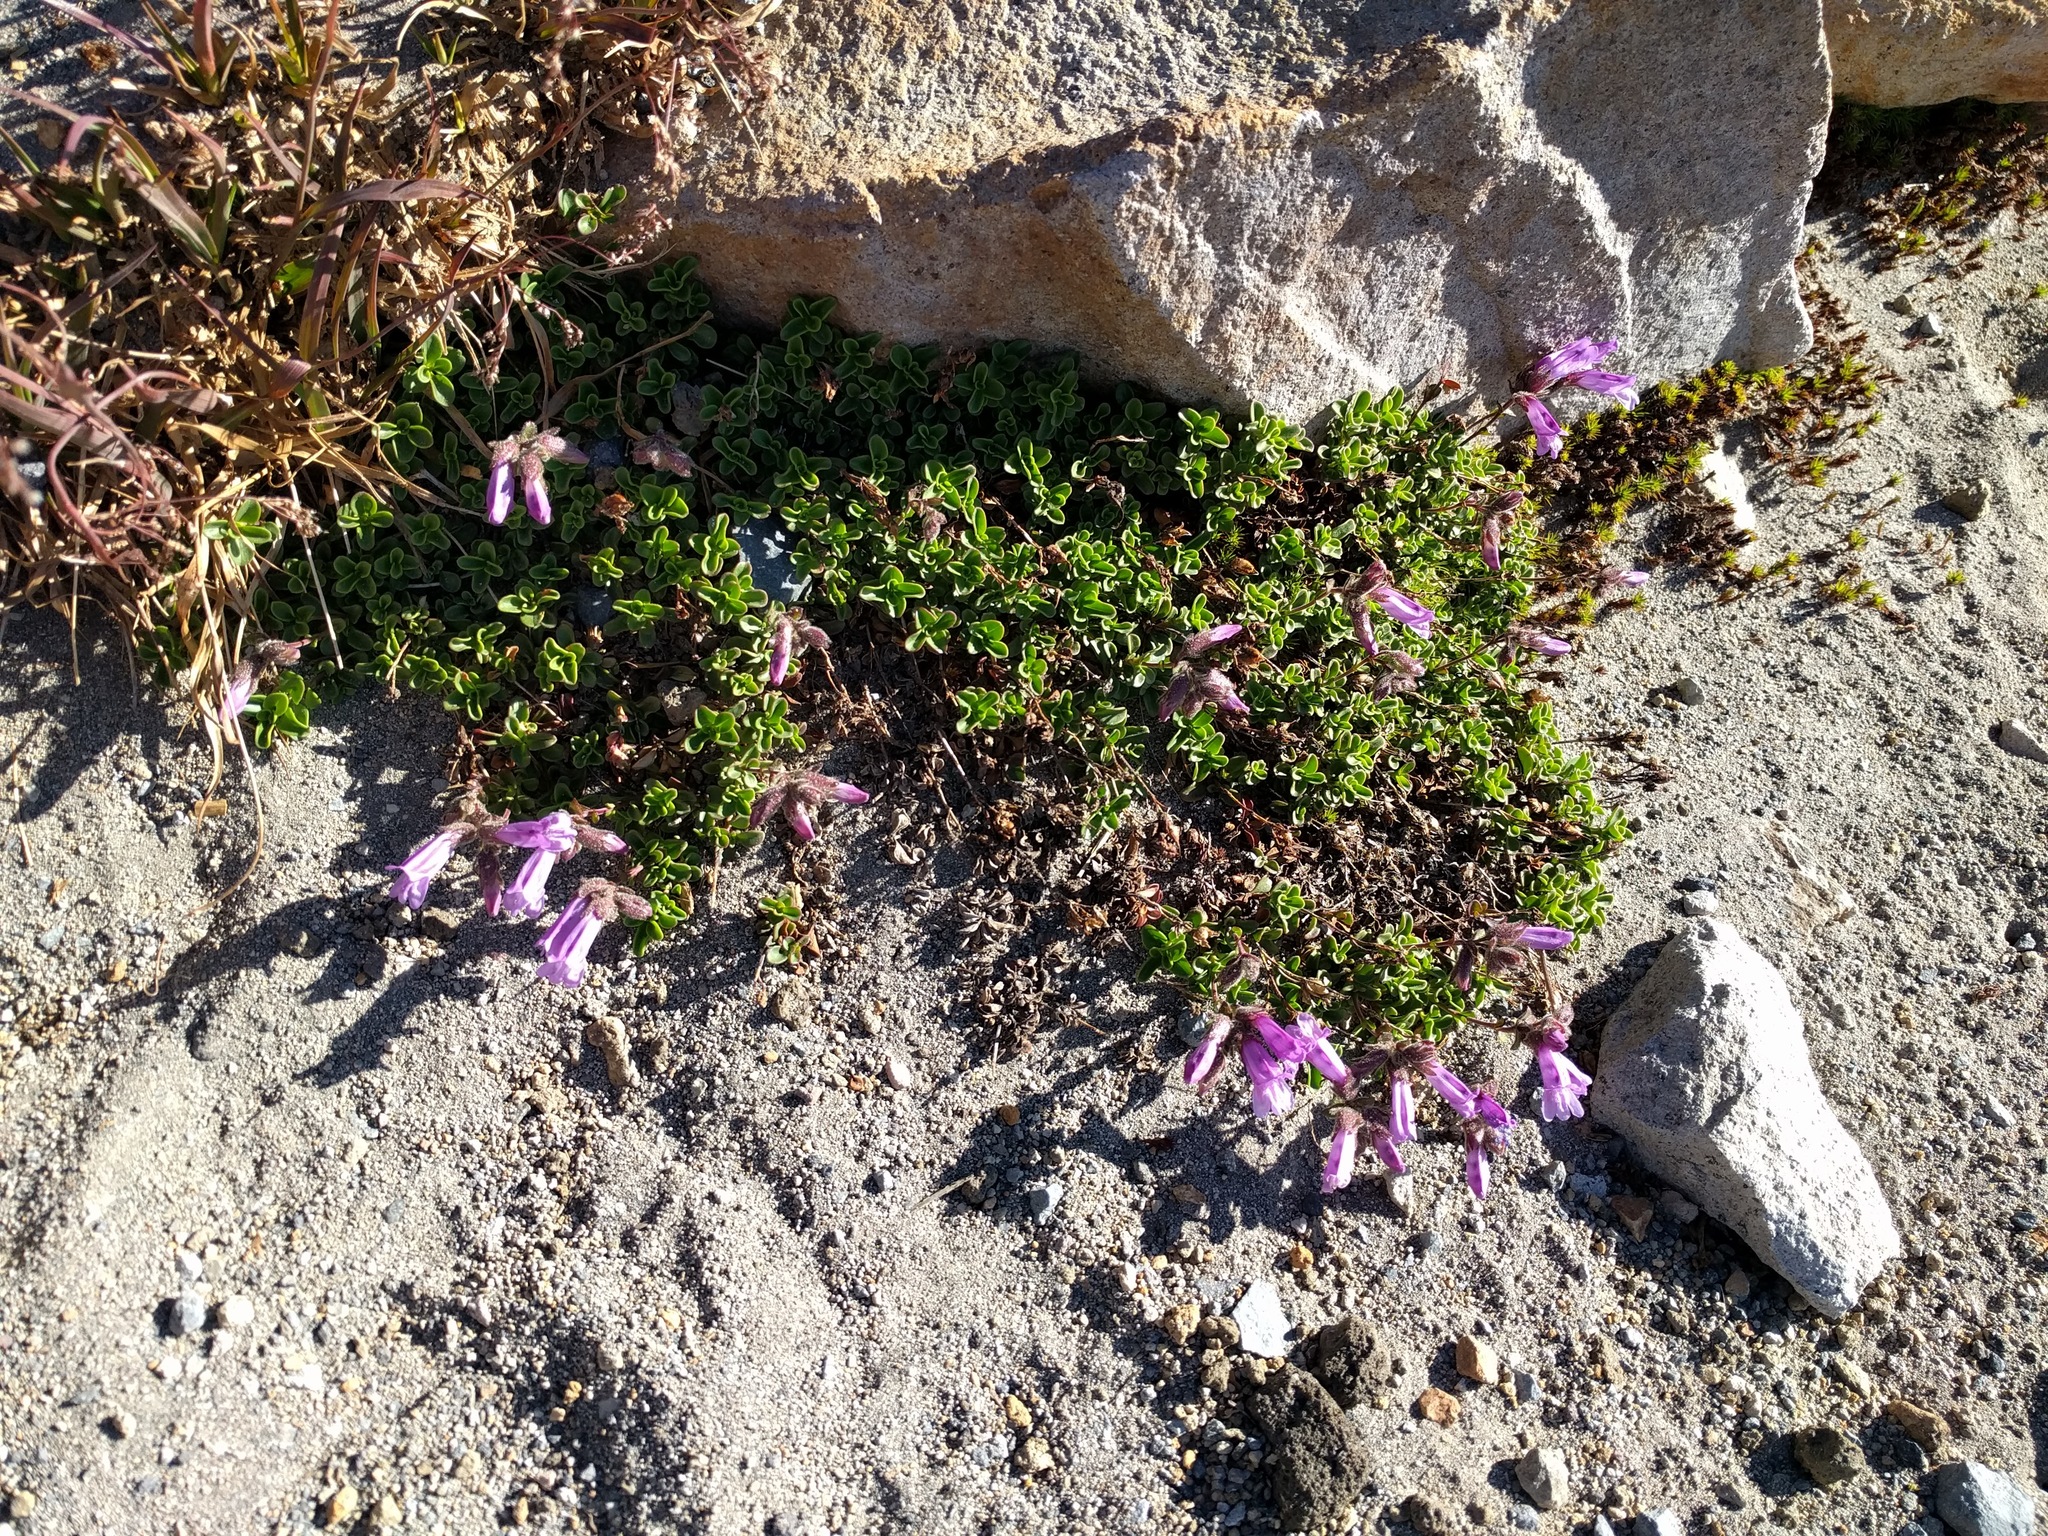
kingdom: Plantae
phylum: Tracheophyta
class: Magnoliopsida
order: Lamiales
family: Plantaginaceae
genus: Penstemon
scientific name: Penstemon davidsonii
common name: Davidson's penstemon
